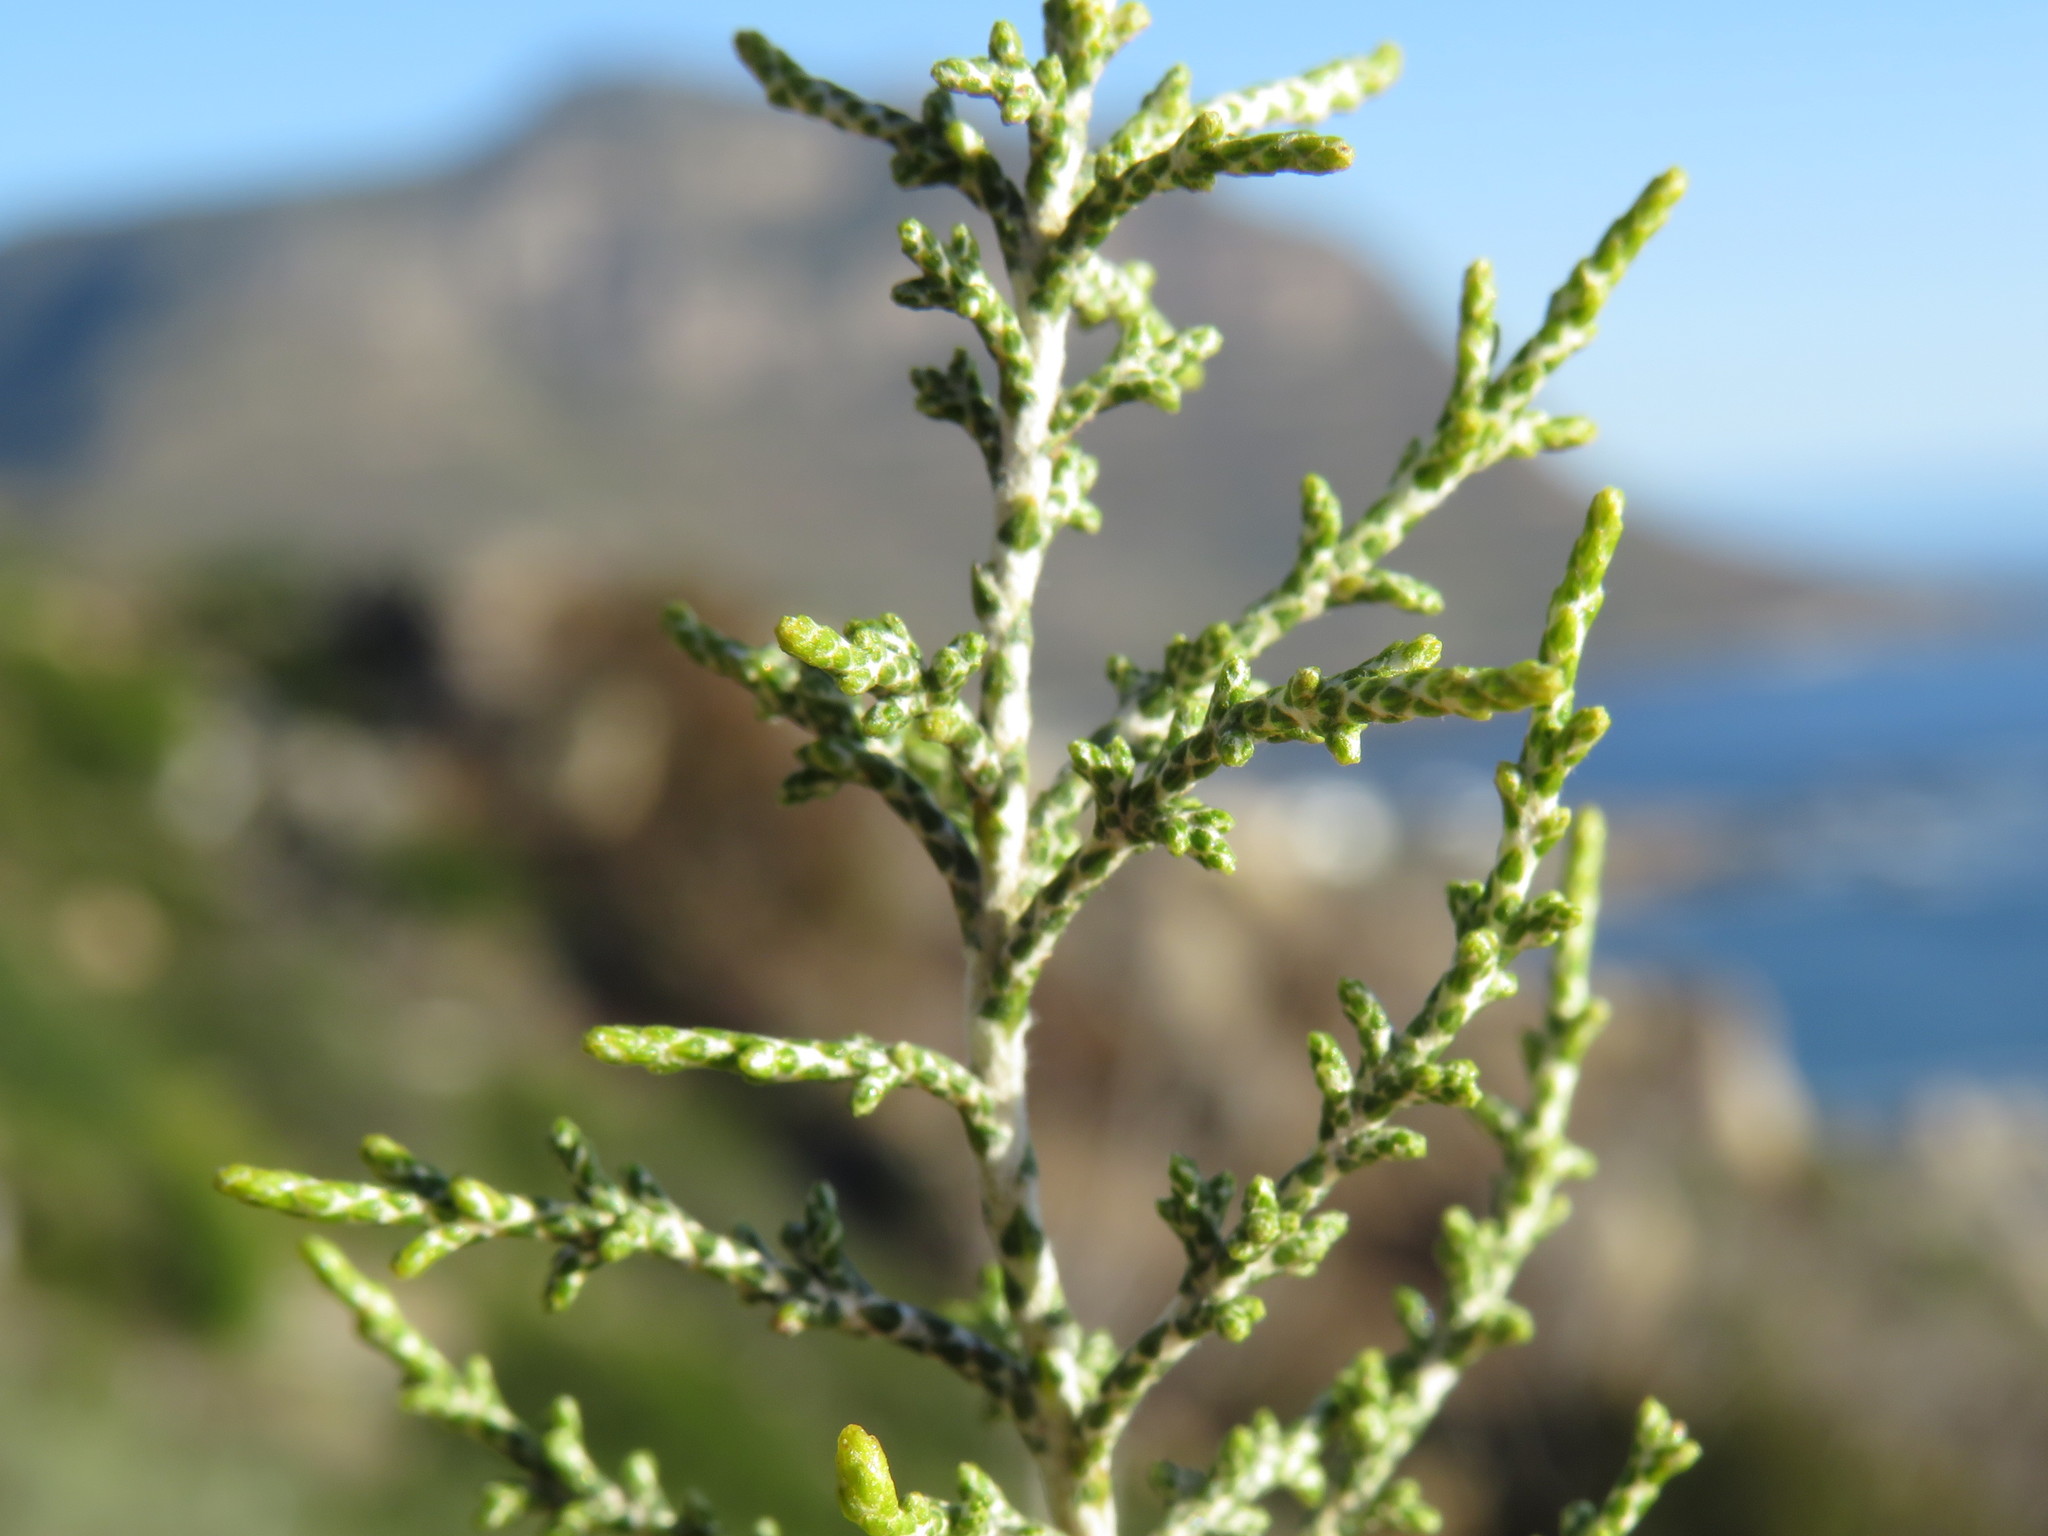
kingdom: Plantae
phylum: Tracheophyta
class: Magnoliopsida
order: Asterales
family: Asteraceae
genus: Dicerothamnus
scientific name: Dicerothamnus rhinocerotis
